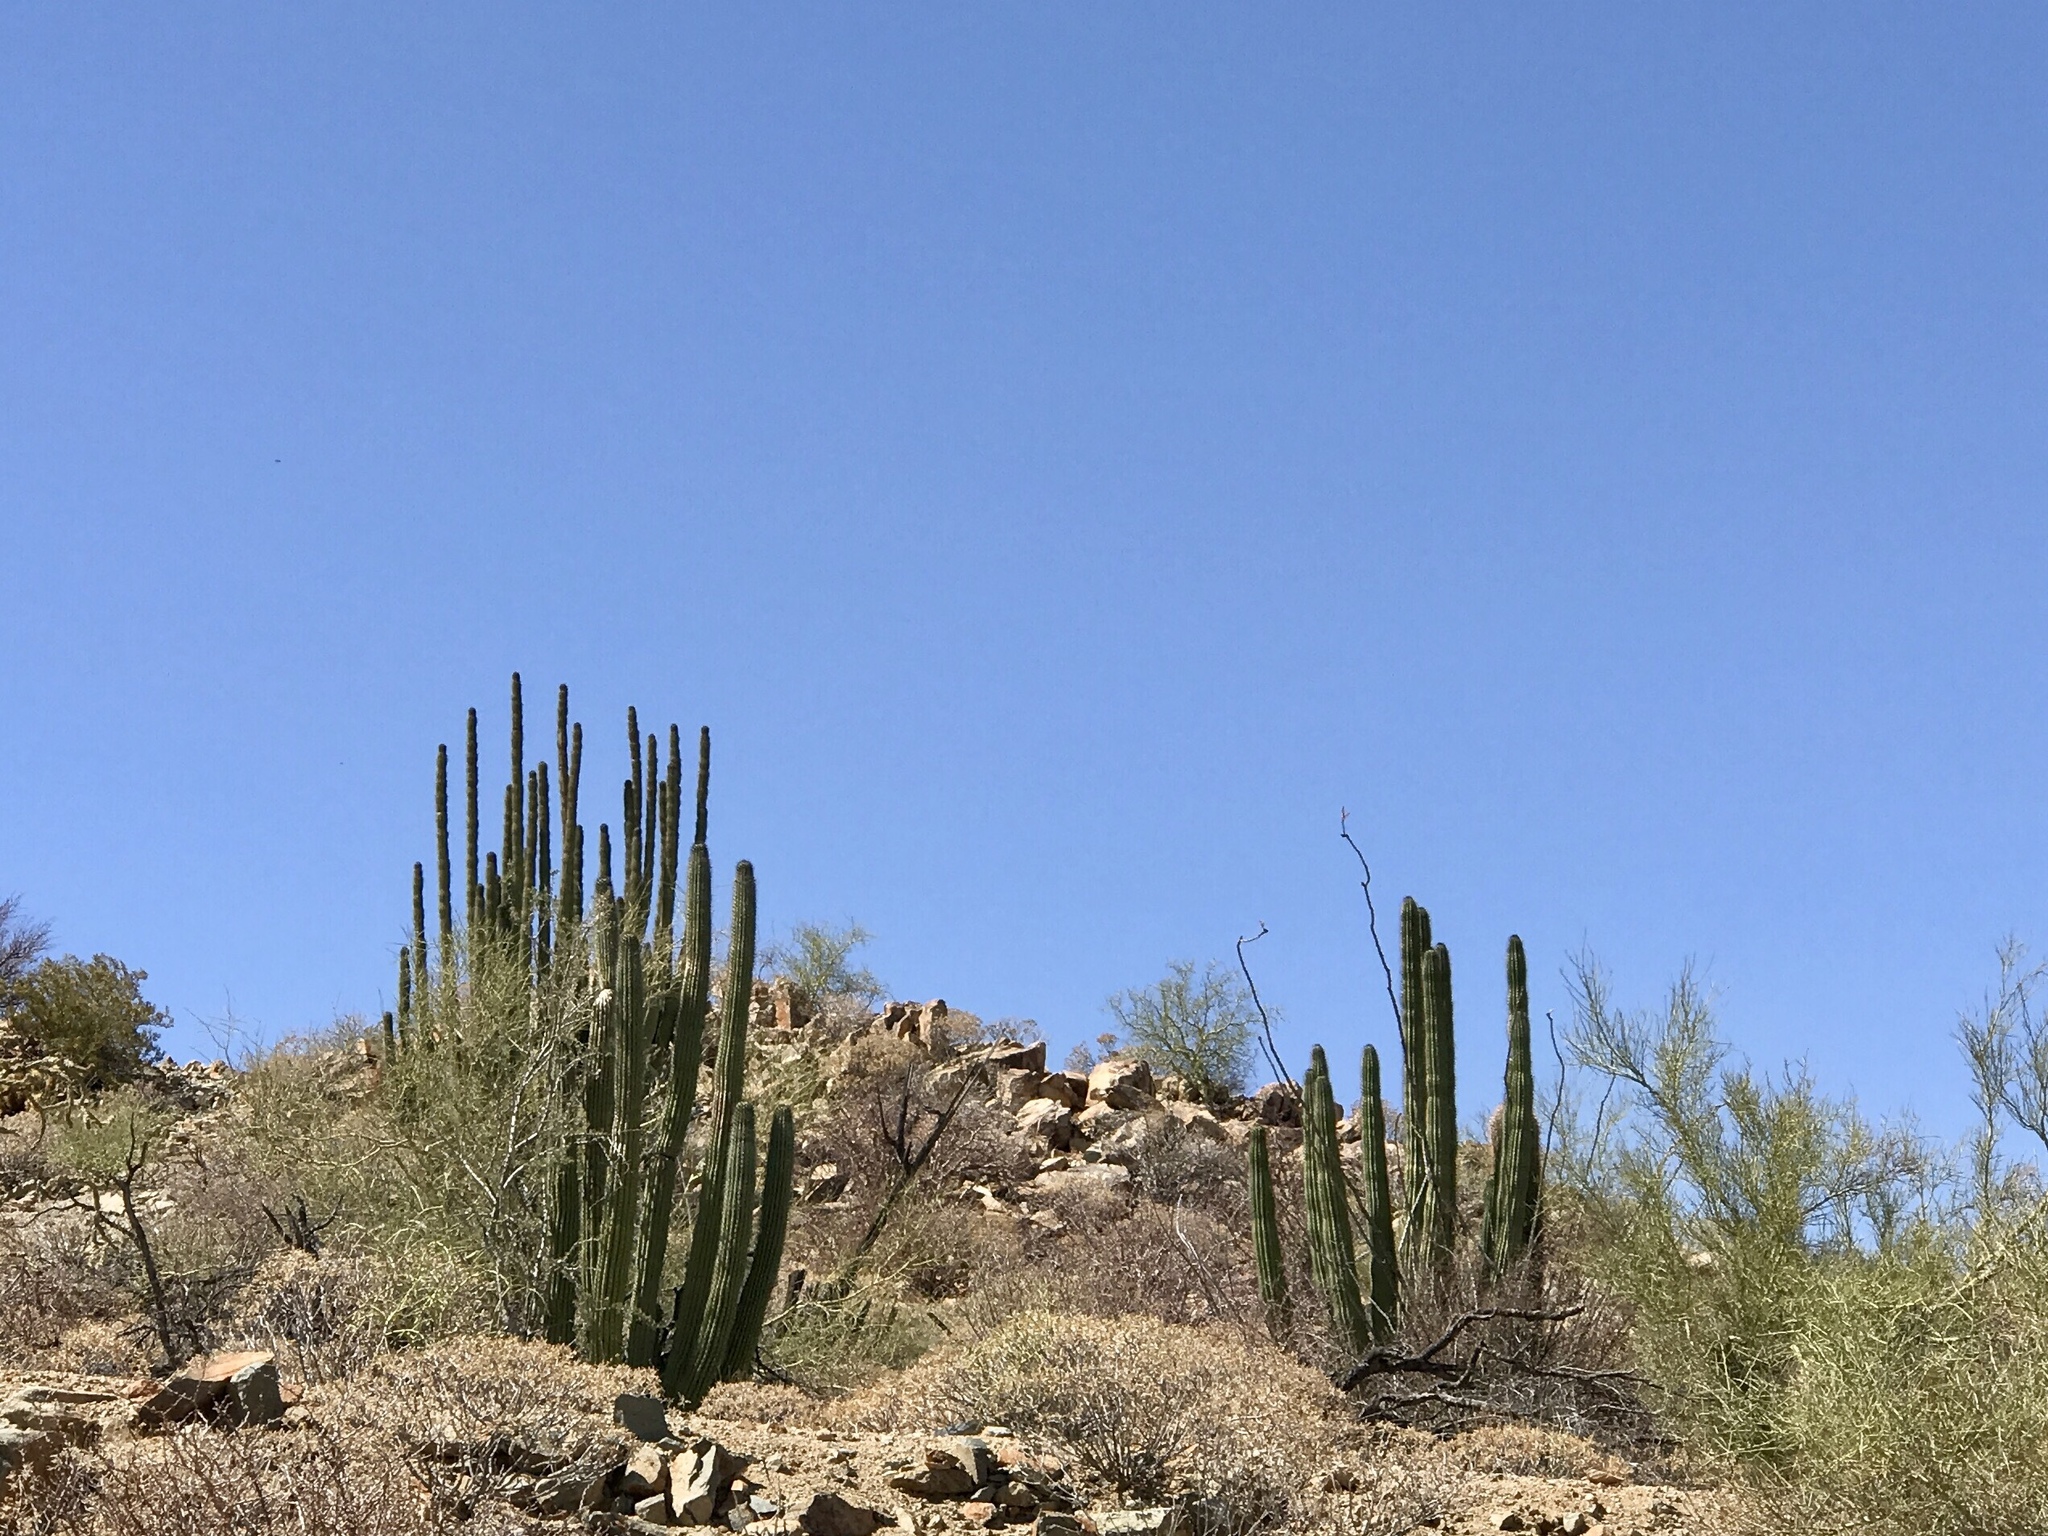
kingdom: Plantae
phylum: Tracheophyta
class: Magnoliopsida
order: Caryophyllales
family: Cactaceae
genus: Stenocereus
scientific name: Stenocereus thurberi
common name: Organ pipe cactus
